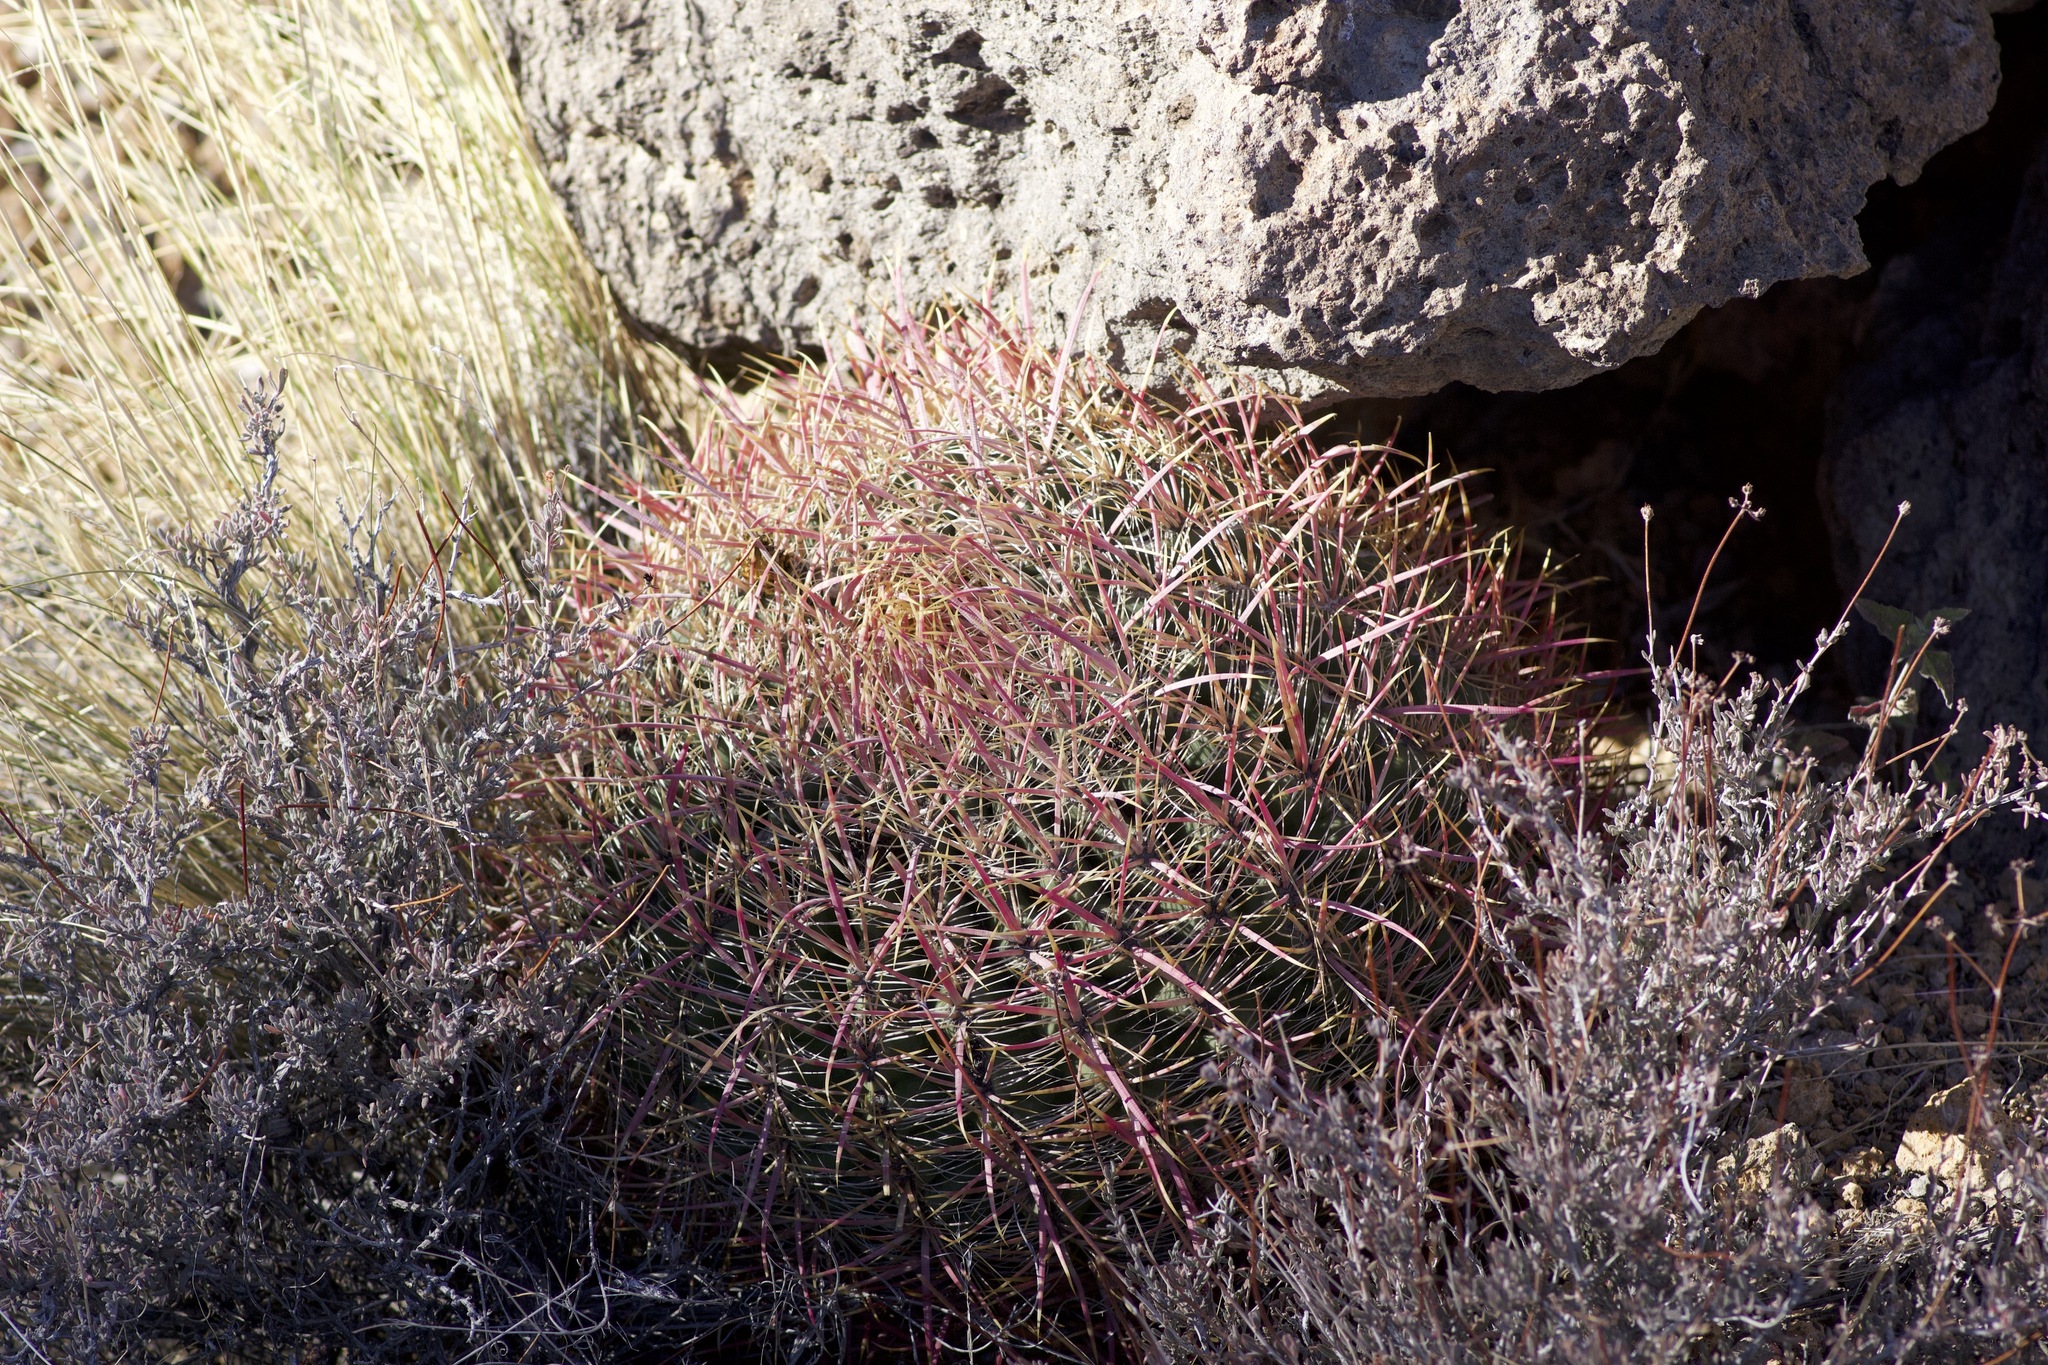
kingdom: Plantae
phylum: Tracheophyta
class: Magnoliopsida
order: Caryophyllales
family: Cactaceae
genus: Ferocactus
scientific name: Ferocactus cylindraceus
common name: California barrel cactus
